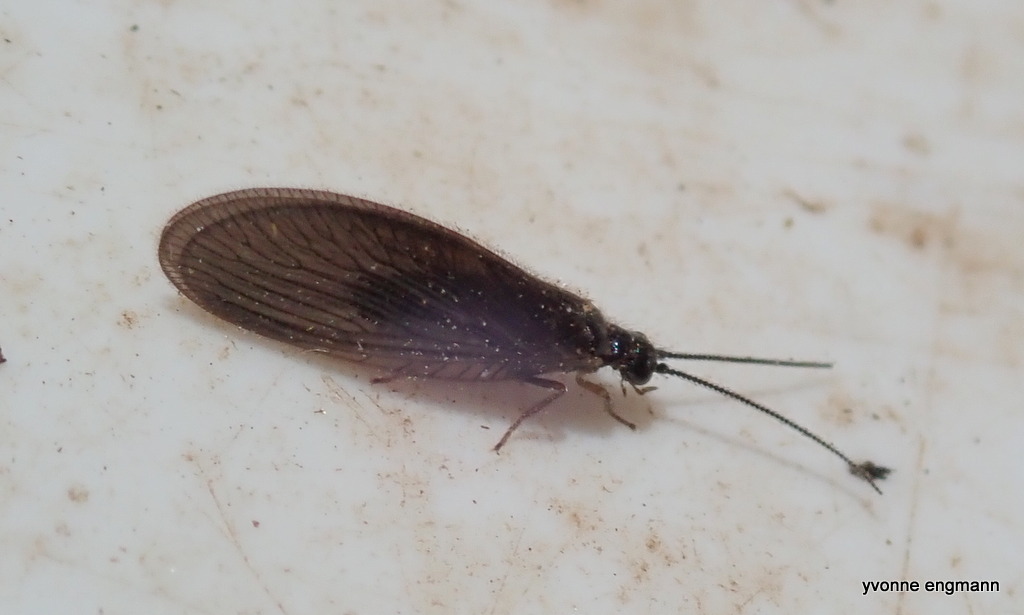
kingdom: Animalia
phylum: Arthropoda
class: Insecta
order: Neuroptera
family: Sisyridae
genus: Sisyra
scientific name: Sisyra nigra
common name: Black spongillafly
